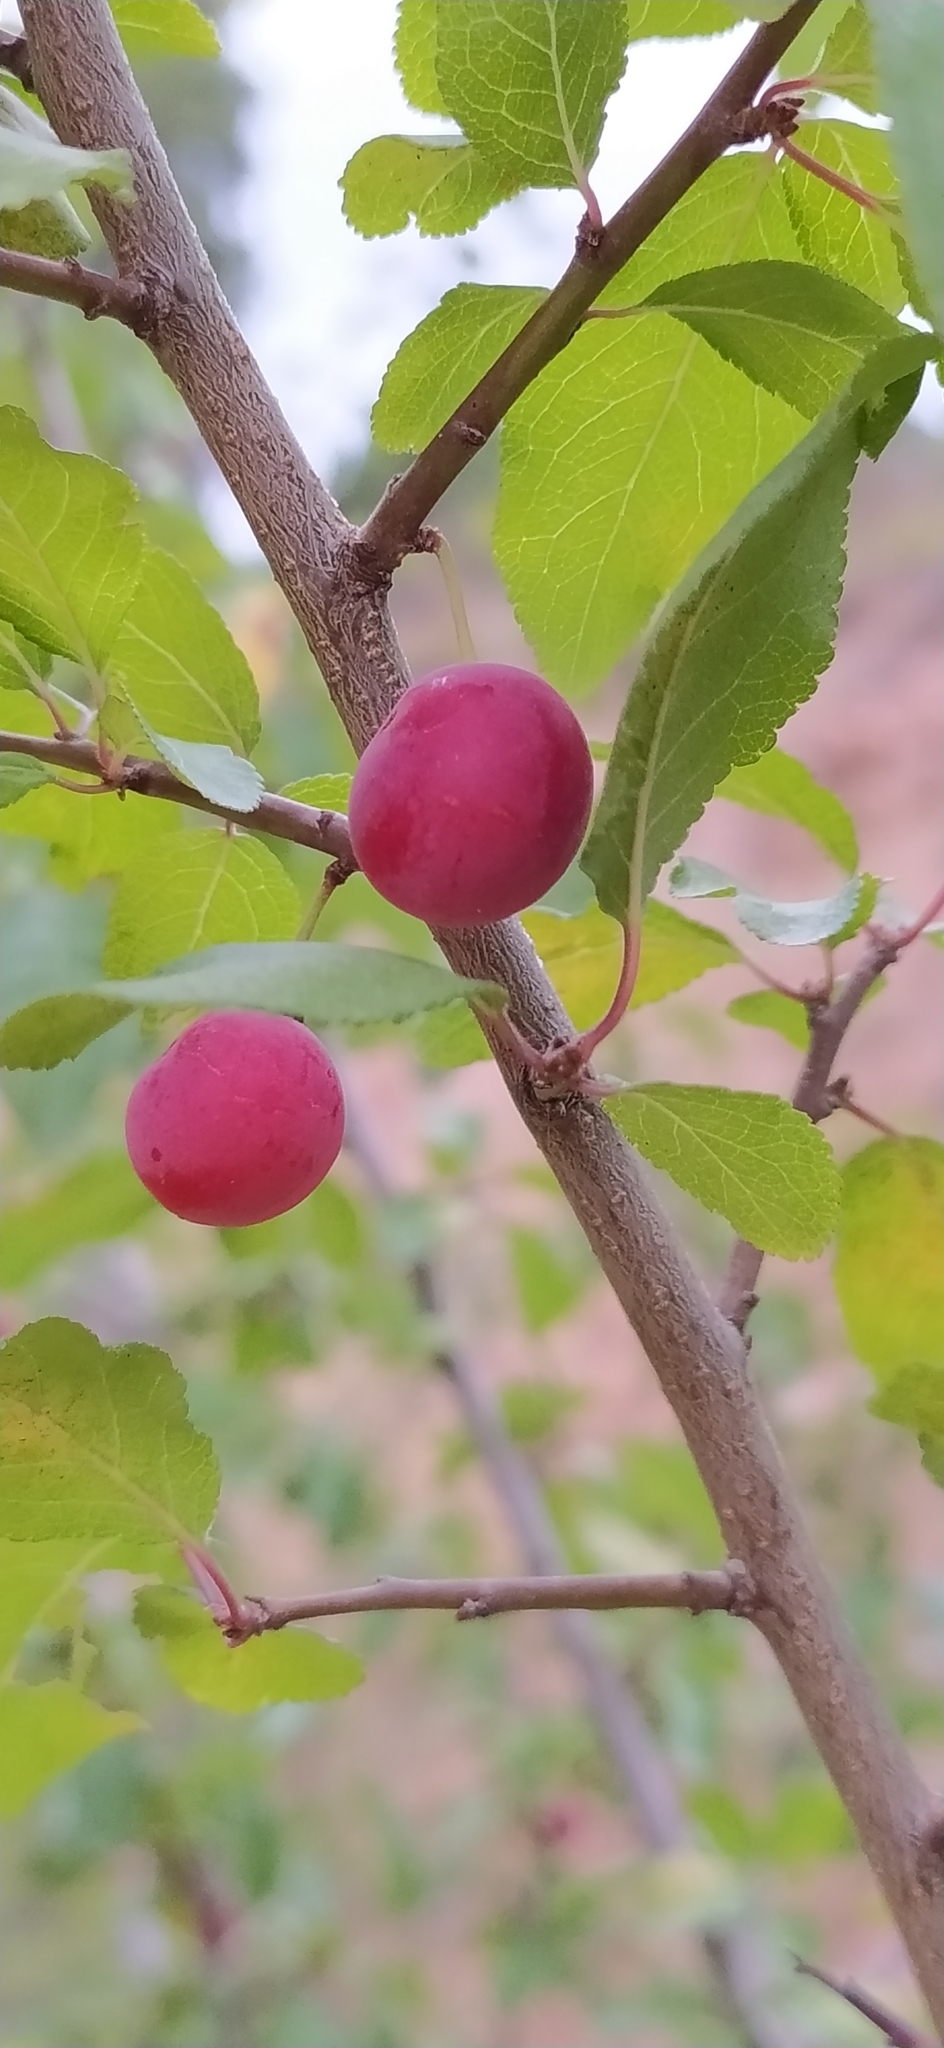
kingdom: Plantae
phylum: Tracheophyta
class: Magnoliopsida
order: Rosales
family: Rosaceae
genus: Prunus
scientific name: Prunus cerasifera
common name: Cherry plum
